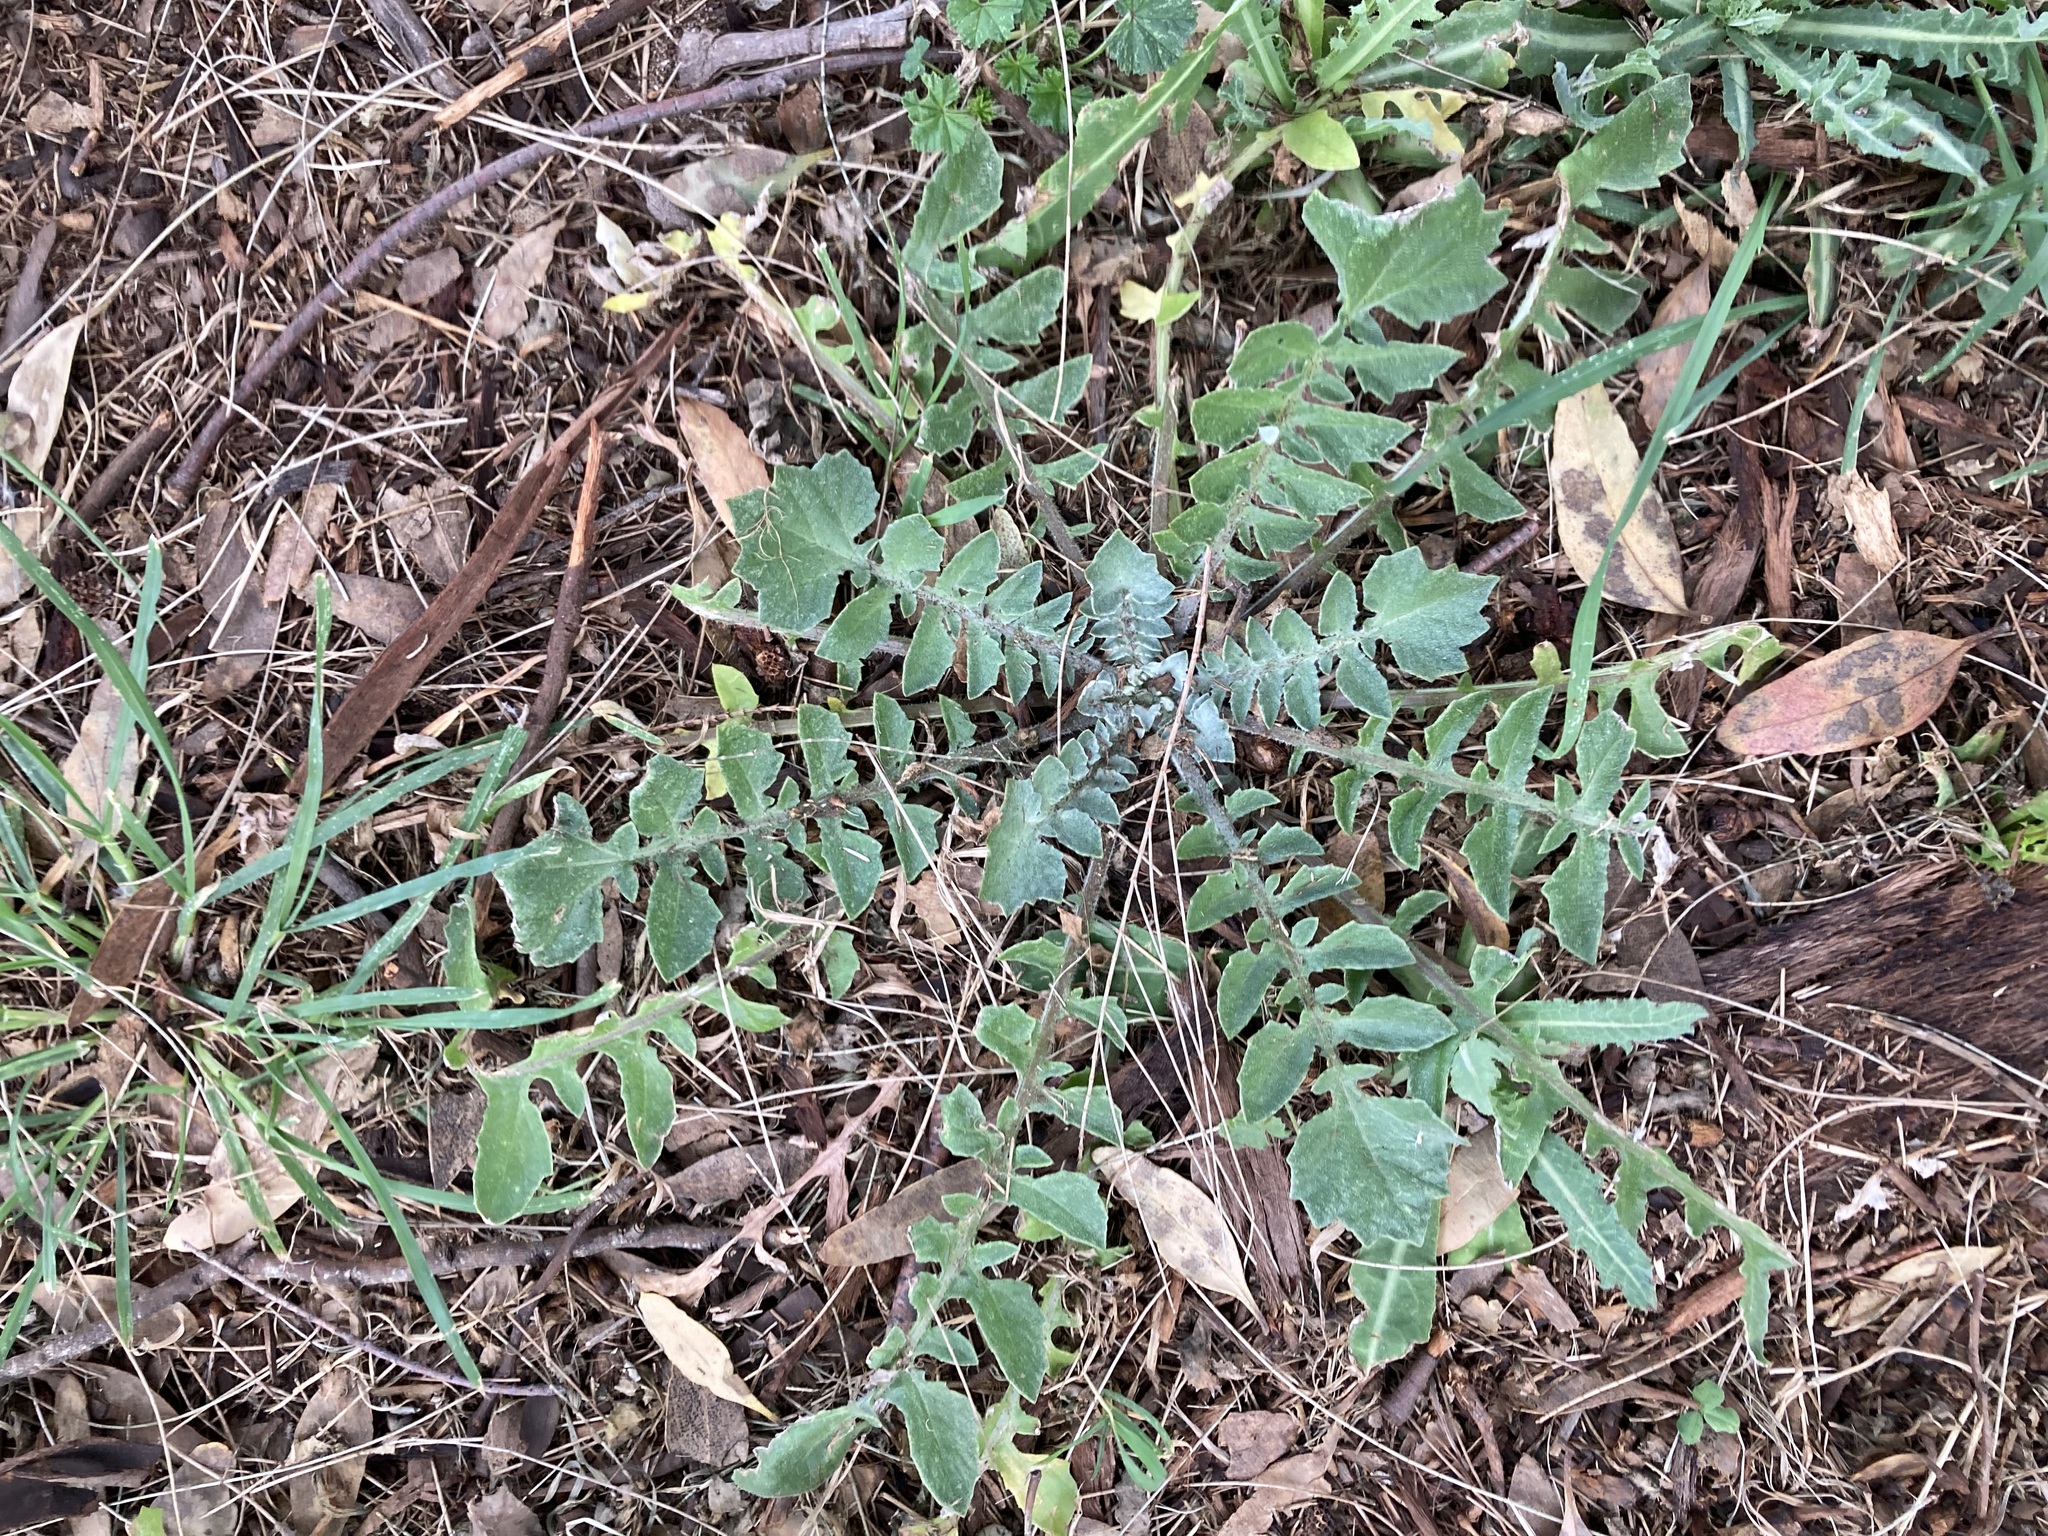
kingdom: Plantae
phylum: Tracheophyta
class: Magnoliopsida
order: Asterales
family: Asteraceae
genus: Arctotheca
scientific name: Arctotheca calendula
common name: Capeweed
